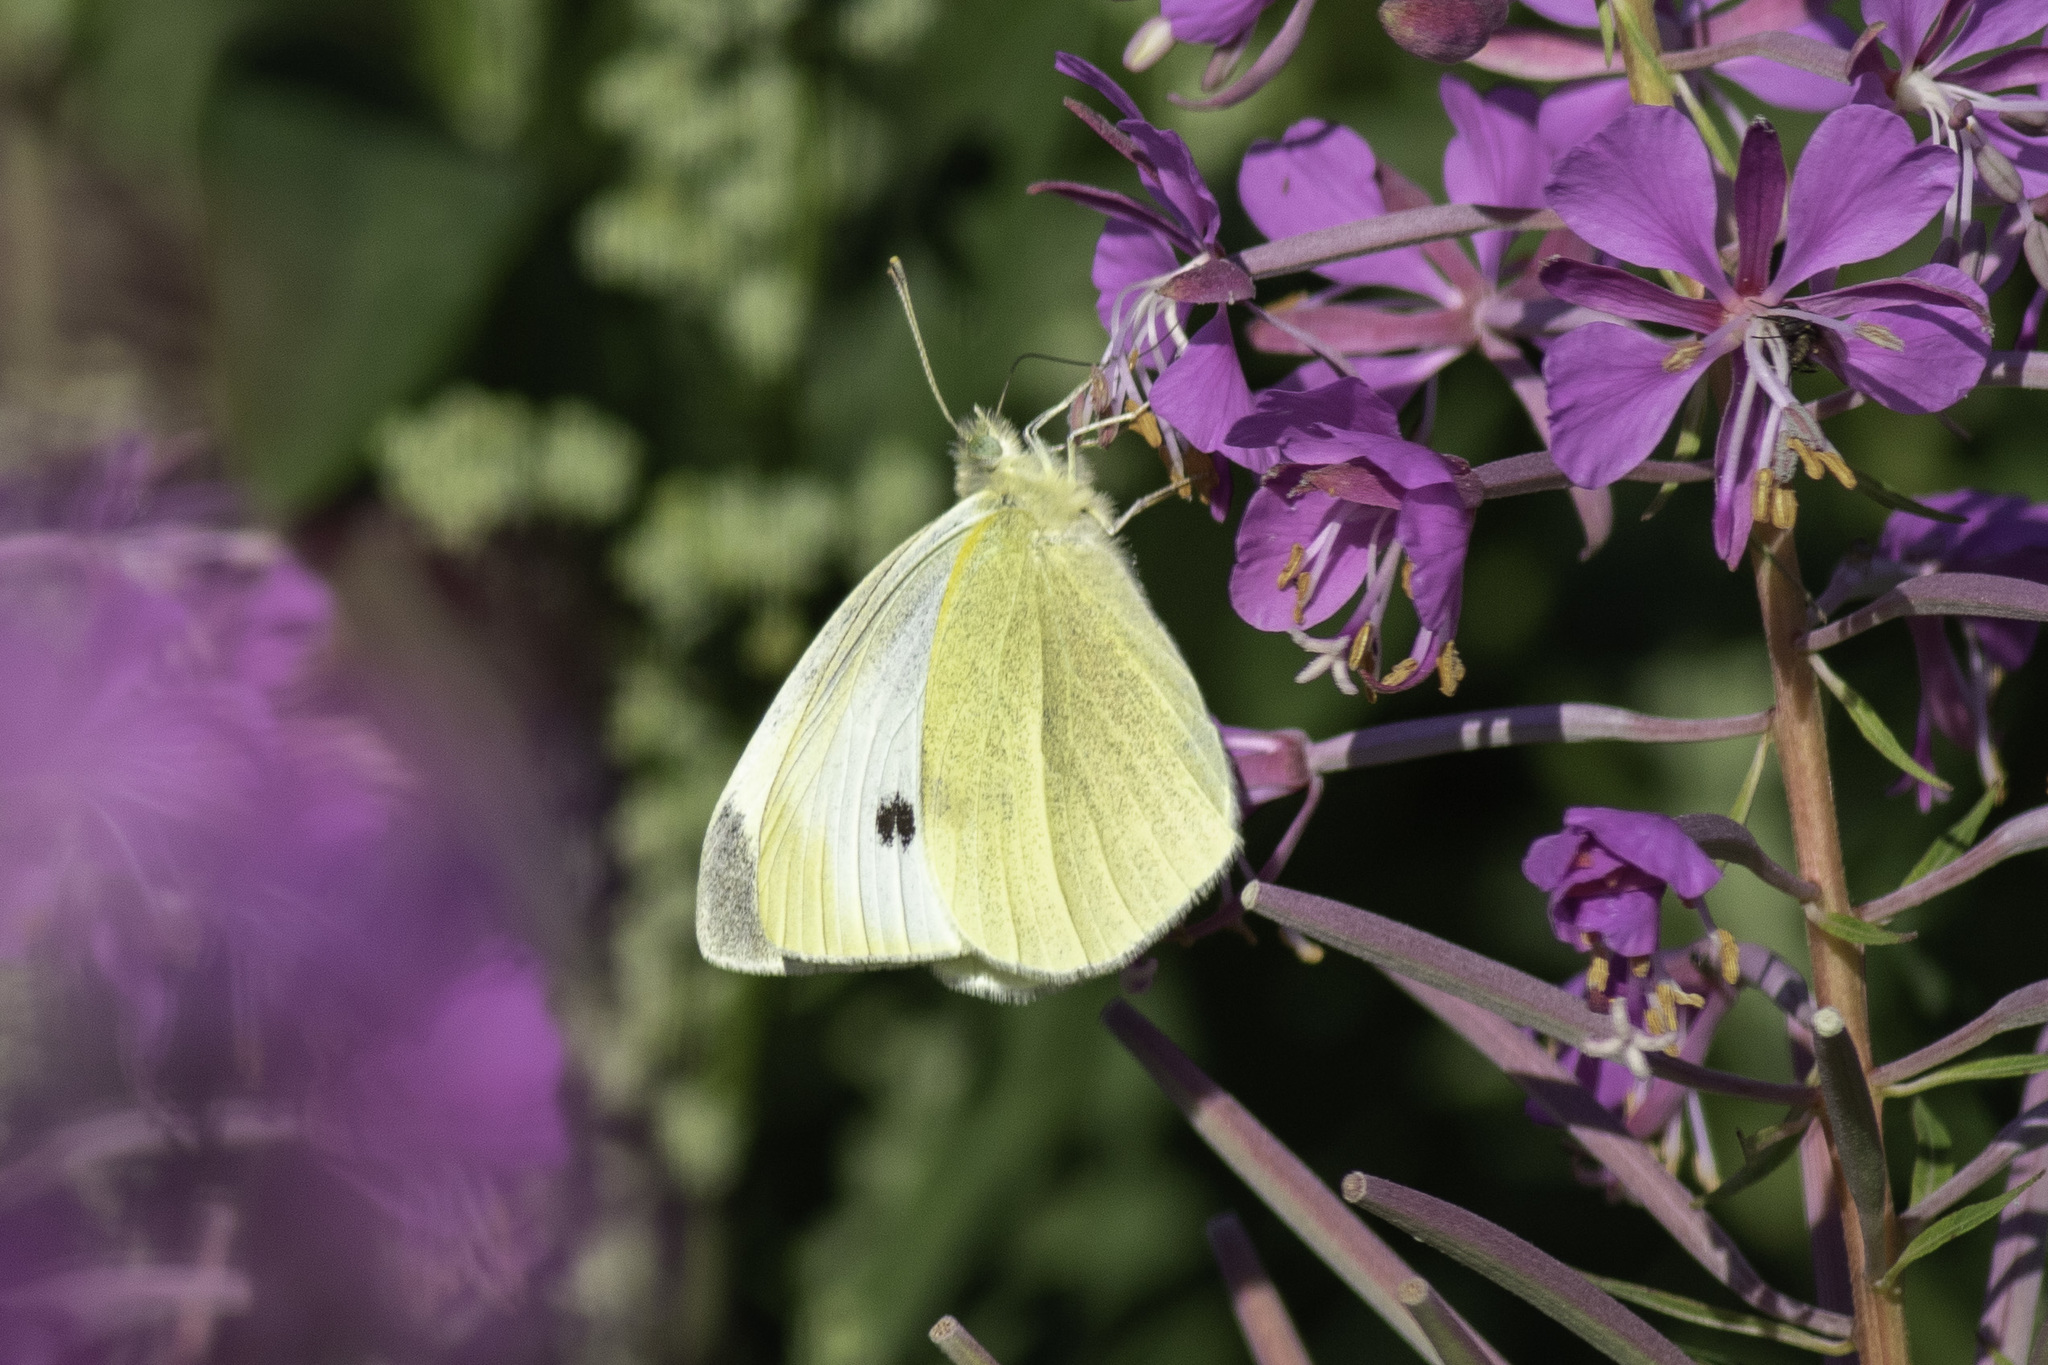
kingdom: Animalia
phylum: Arthropoda
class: Insecta
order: Lepidoptera
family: Pieridae
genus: Pieris
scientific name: Pieris rapae
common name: Small white
